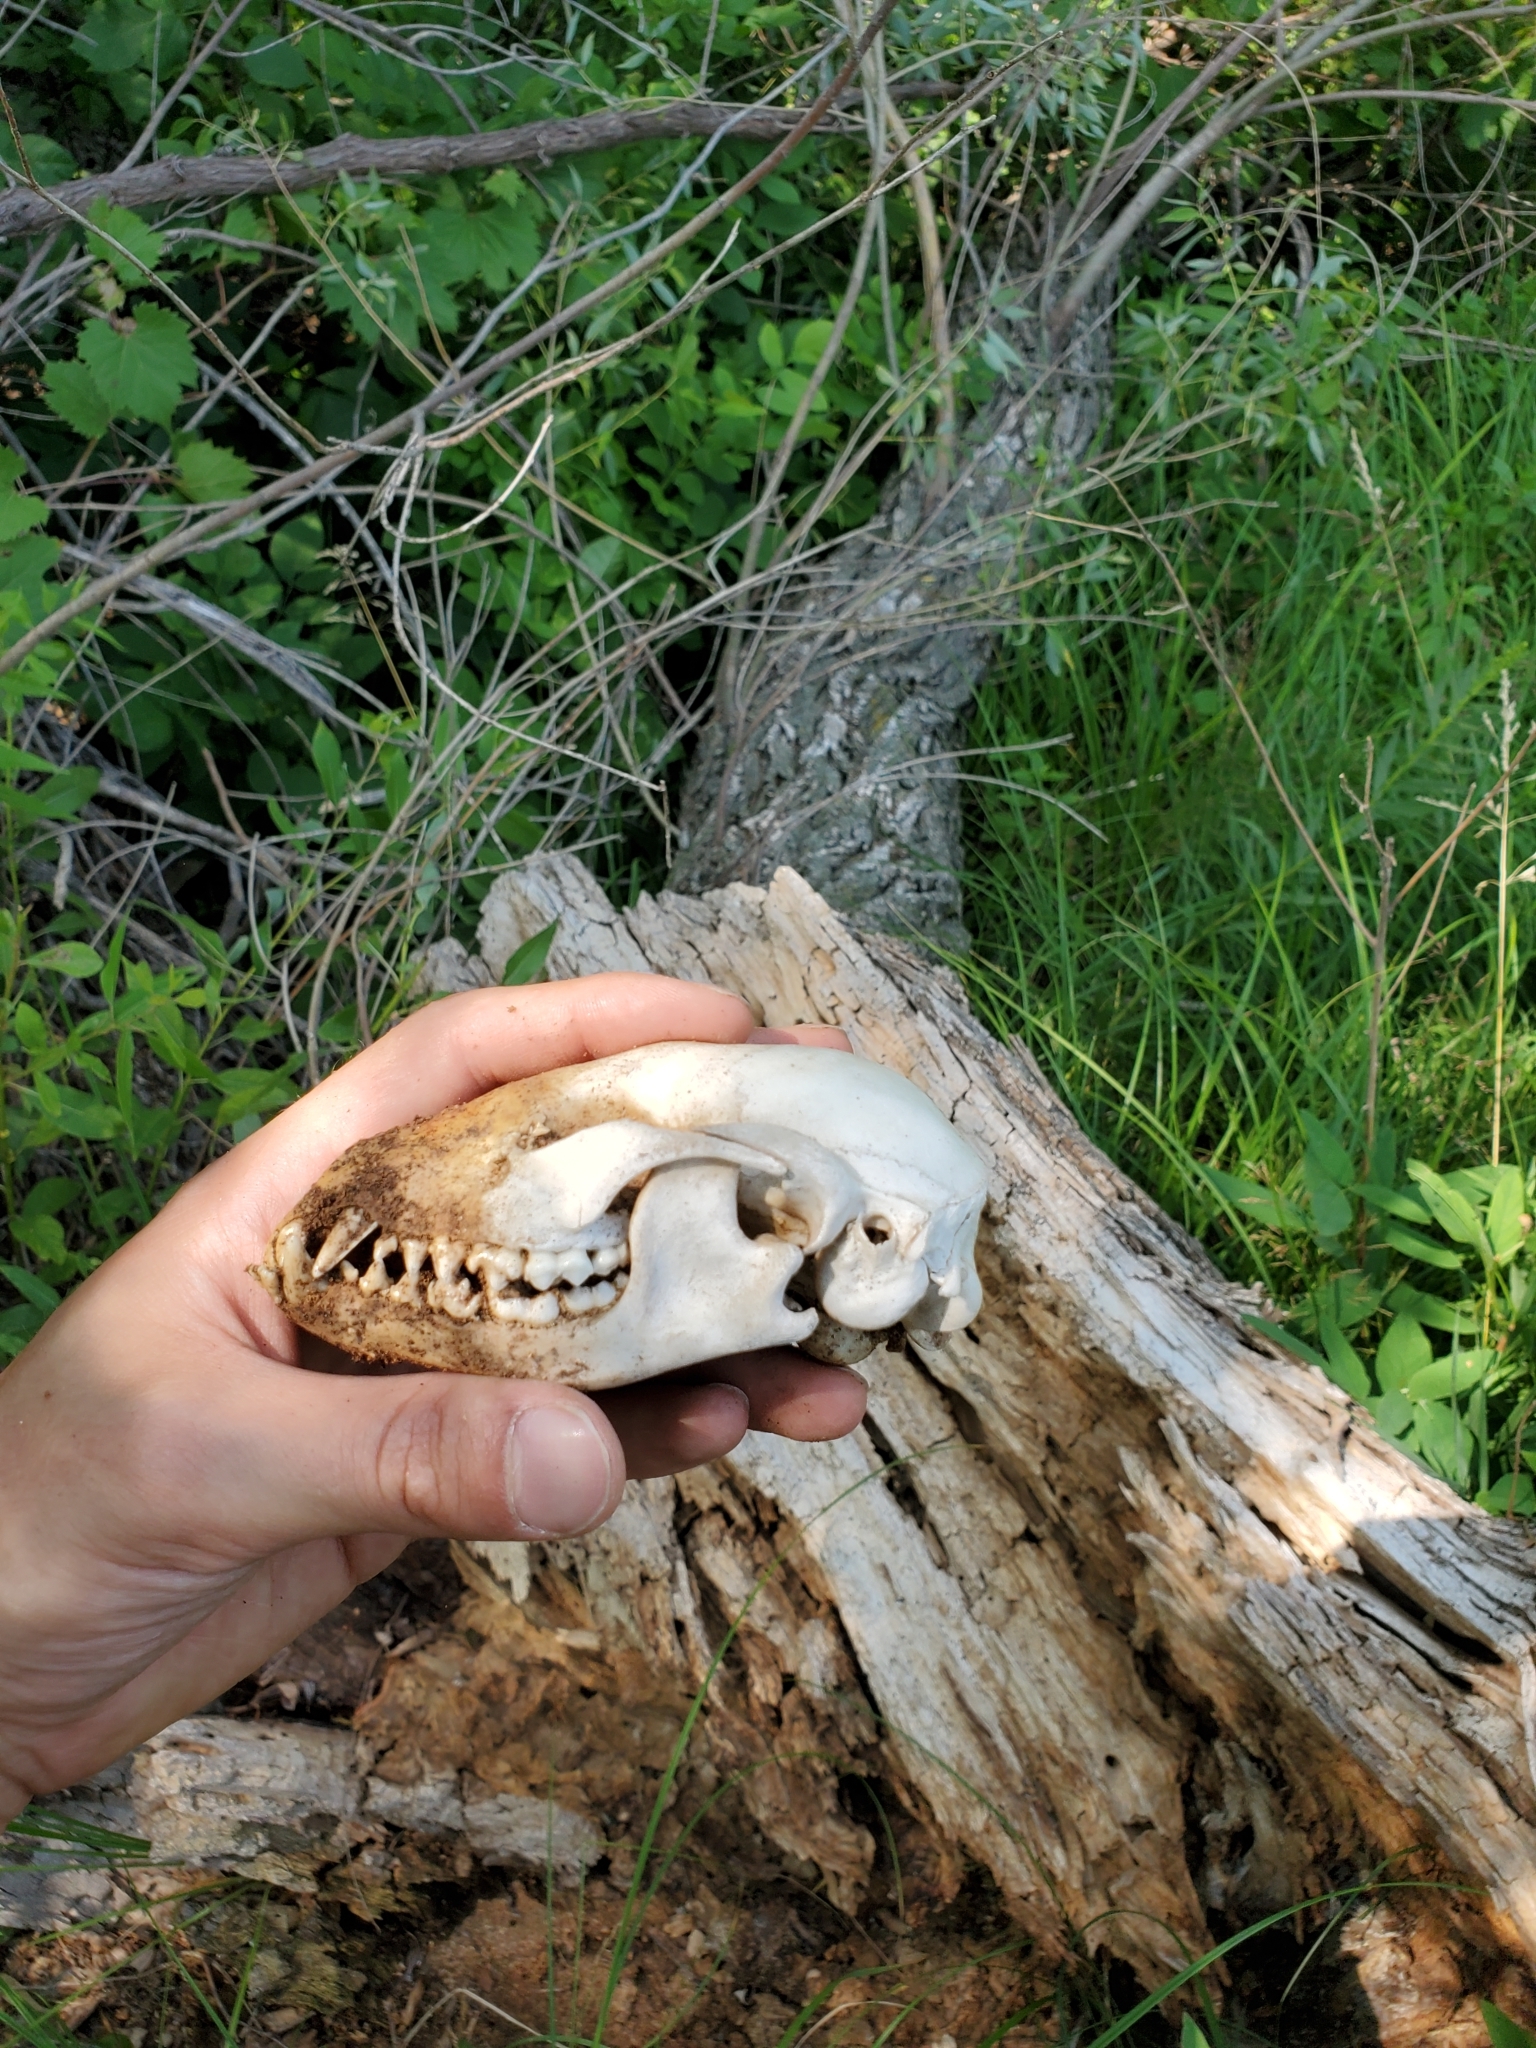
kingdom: Animalia
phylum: Chordata
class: Mammalia
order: Carnivora
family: Procyonidae
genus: Procyon
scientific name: Procyon lotor
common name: Raccoon
